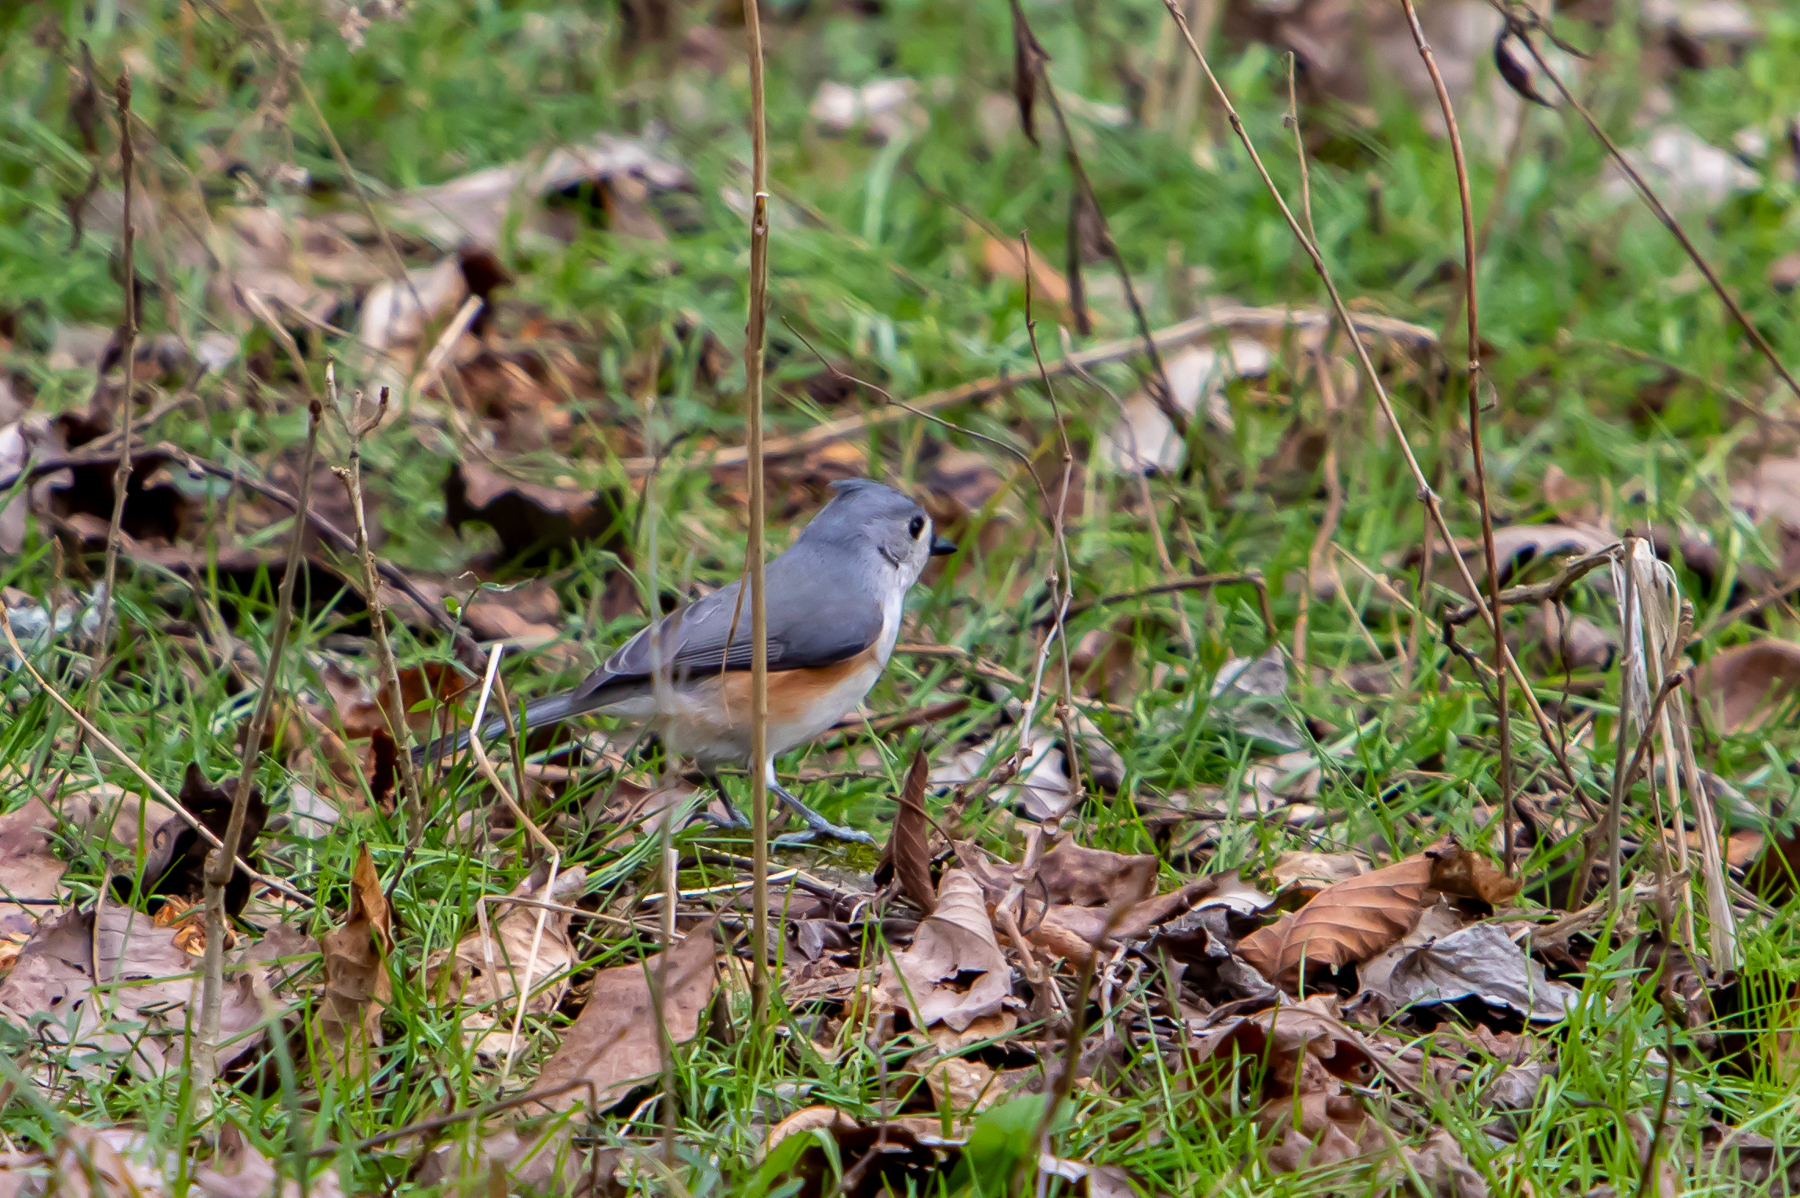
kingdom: Animalia
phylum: Chordata
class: Aves
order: Passeriformes
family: Paridae
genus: Baeolophus
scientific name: Baeolophus bicolor
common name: Tufted titmouse
